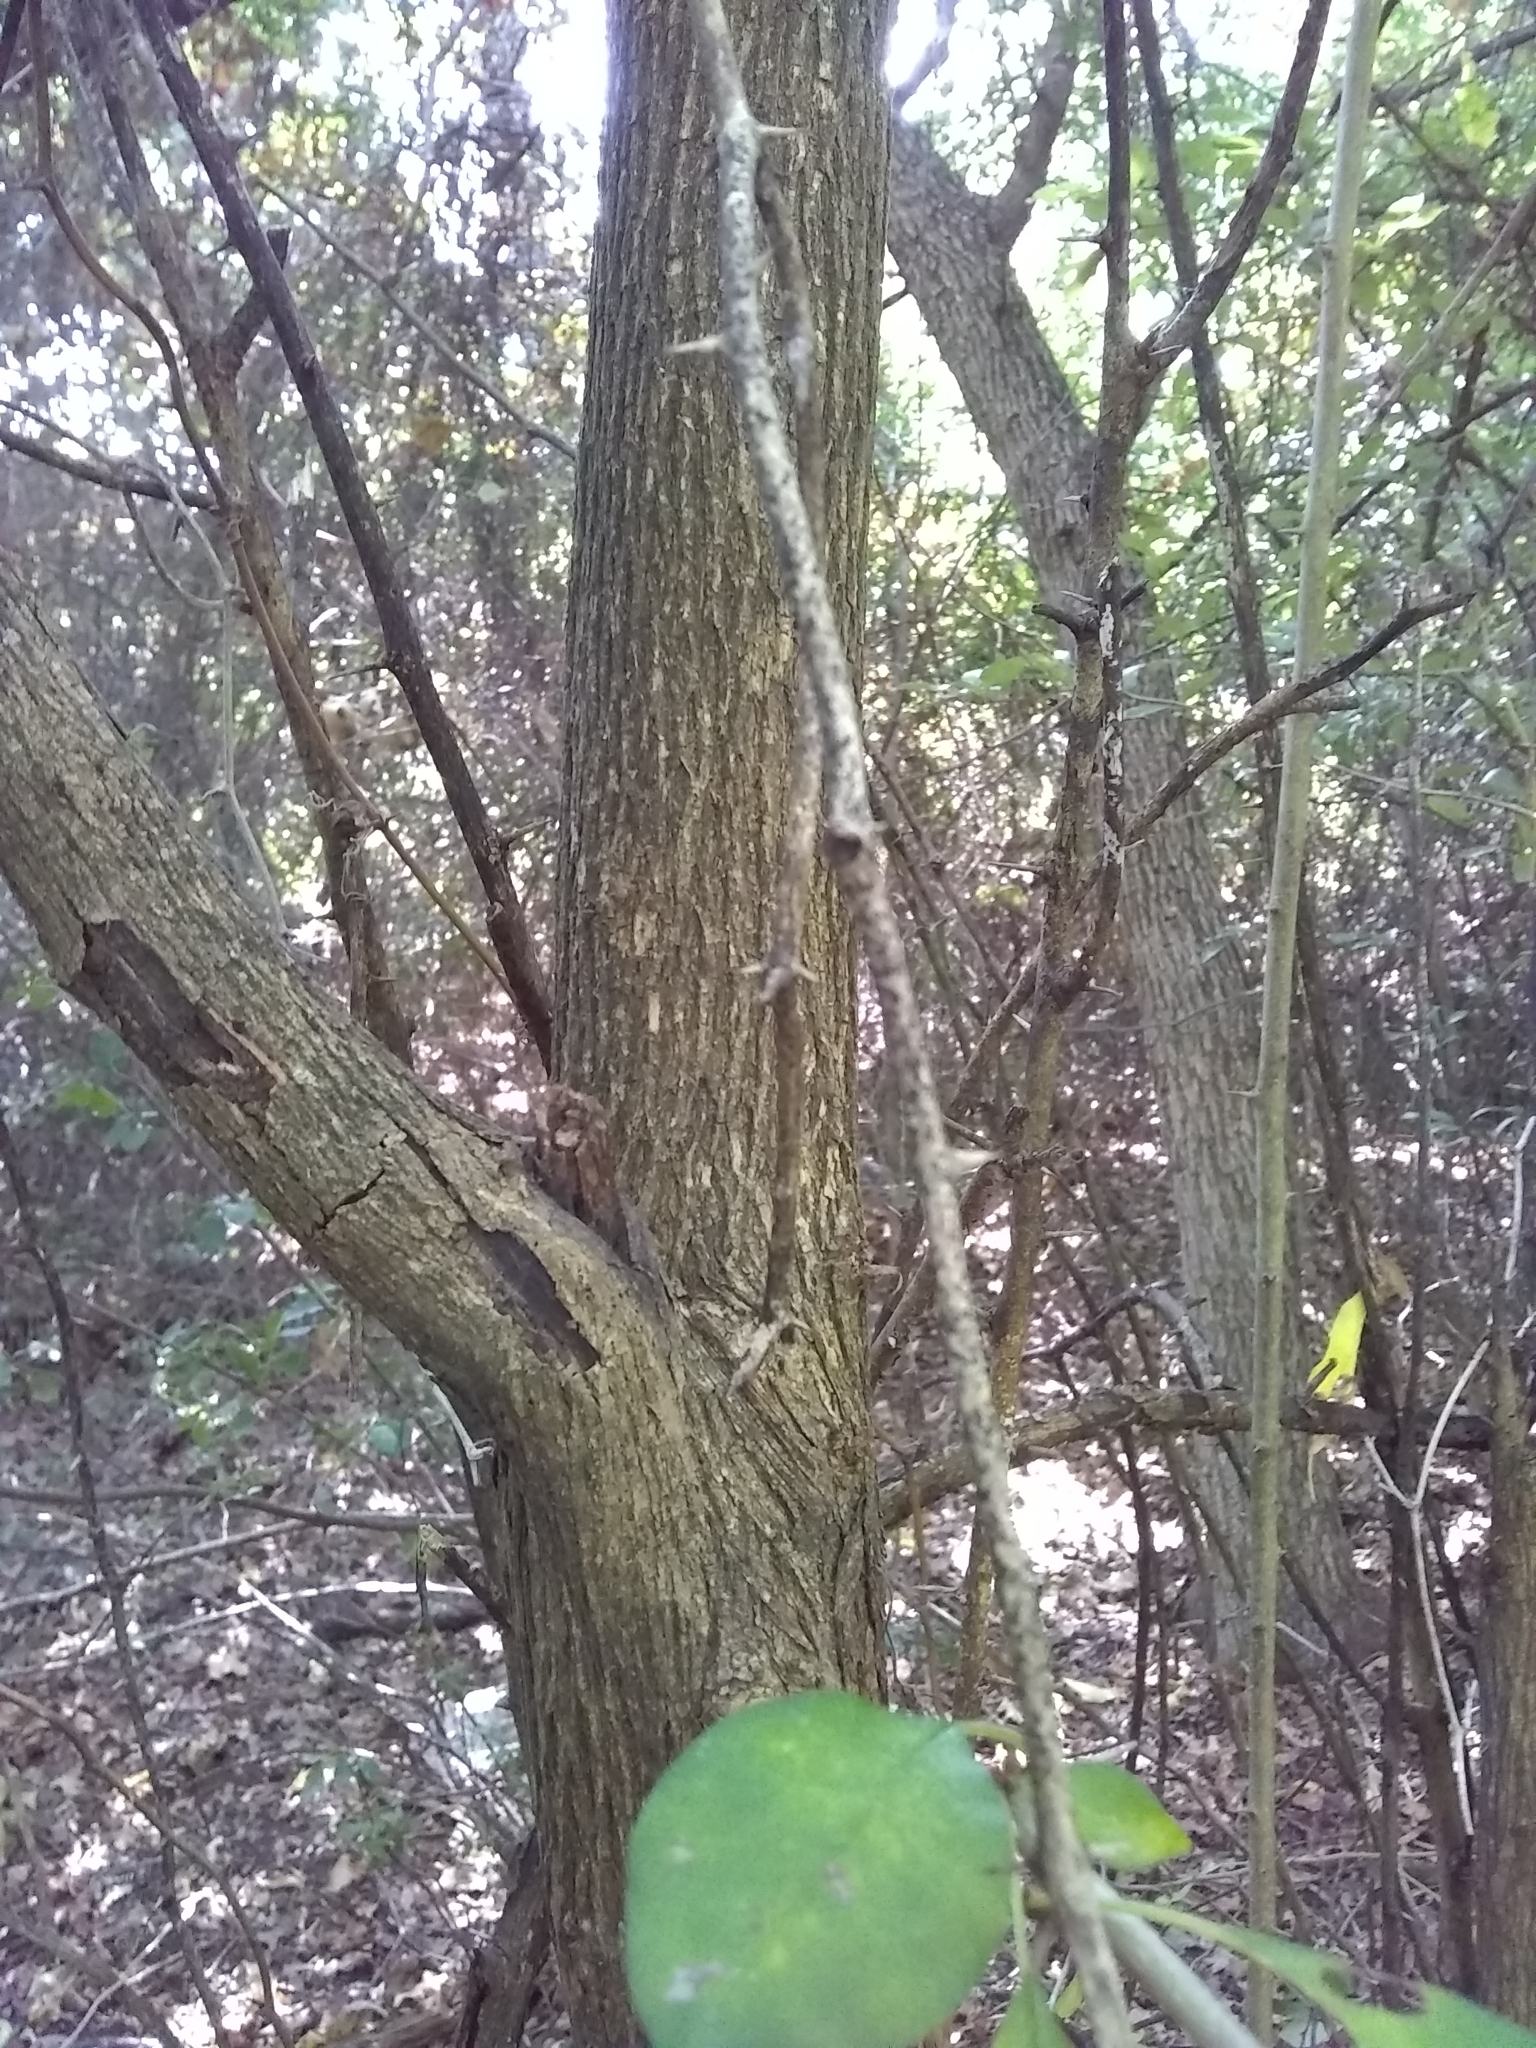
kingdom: Plantae
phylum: Tracheophyta
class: Magnoliopsida
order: Rosales
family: Moraceae
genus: Maclura
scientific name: Maclura pomifera
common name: Osage-orange
